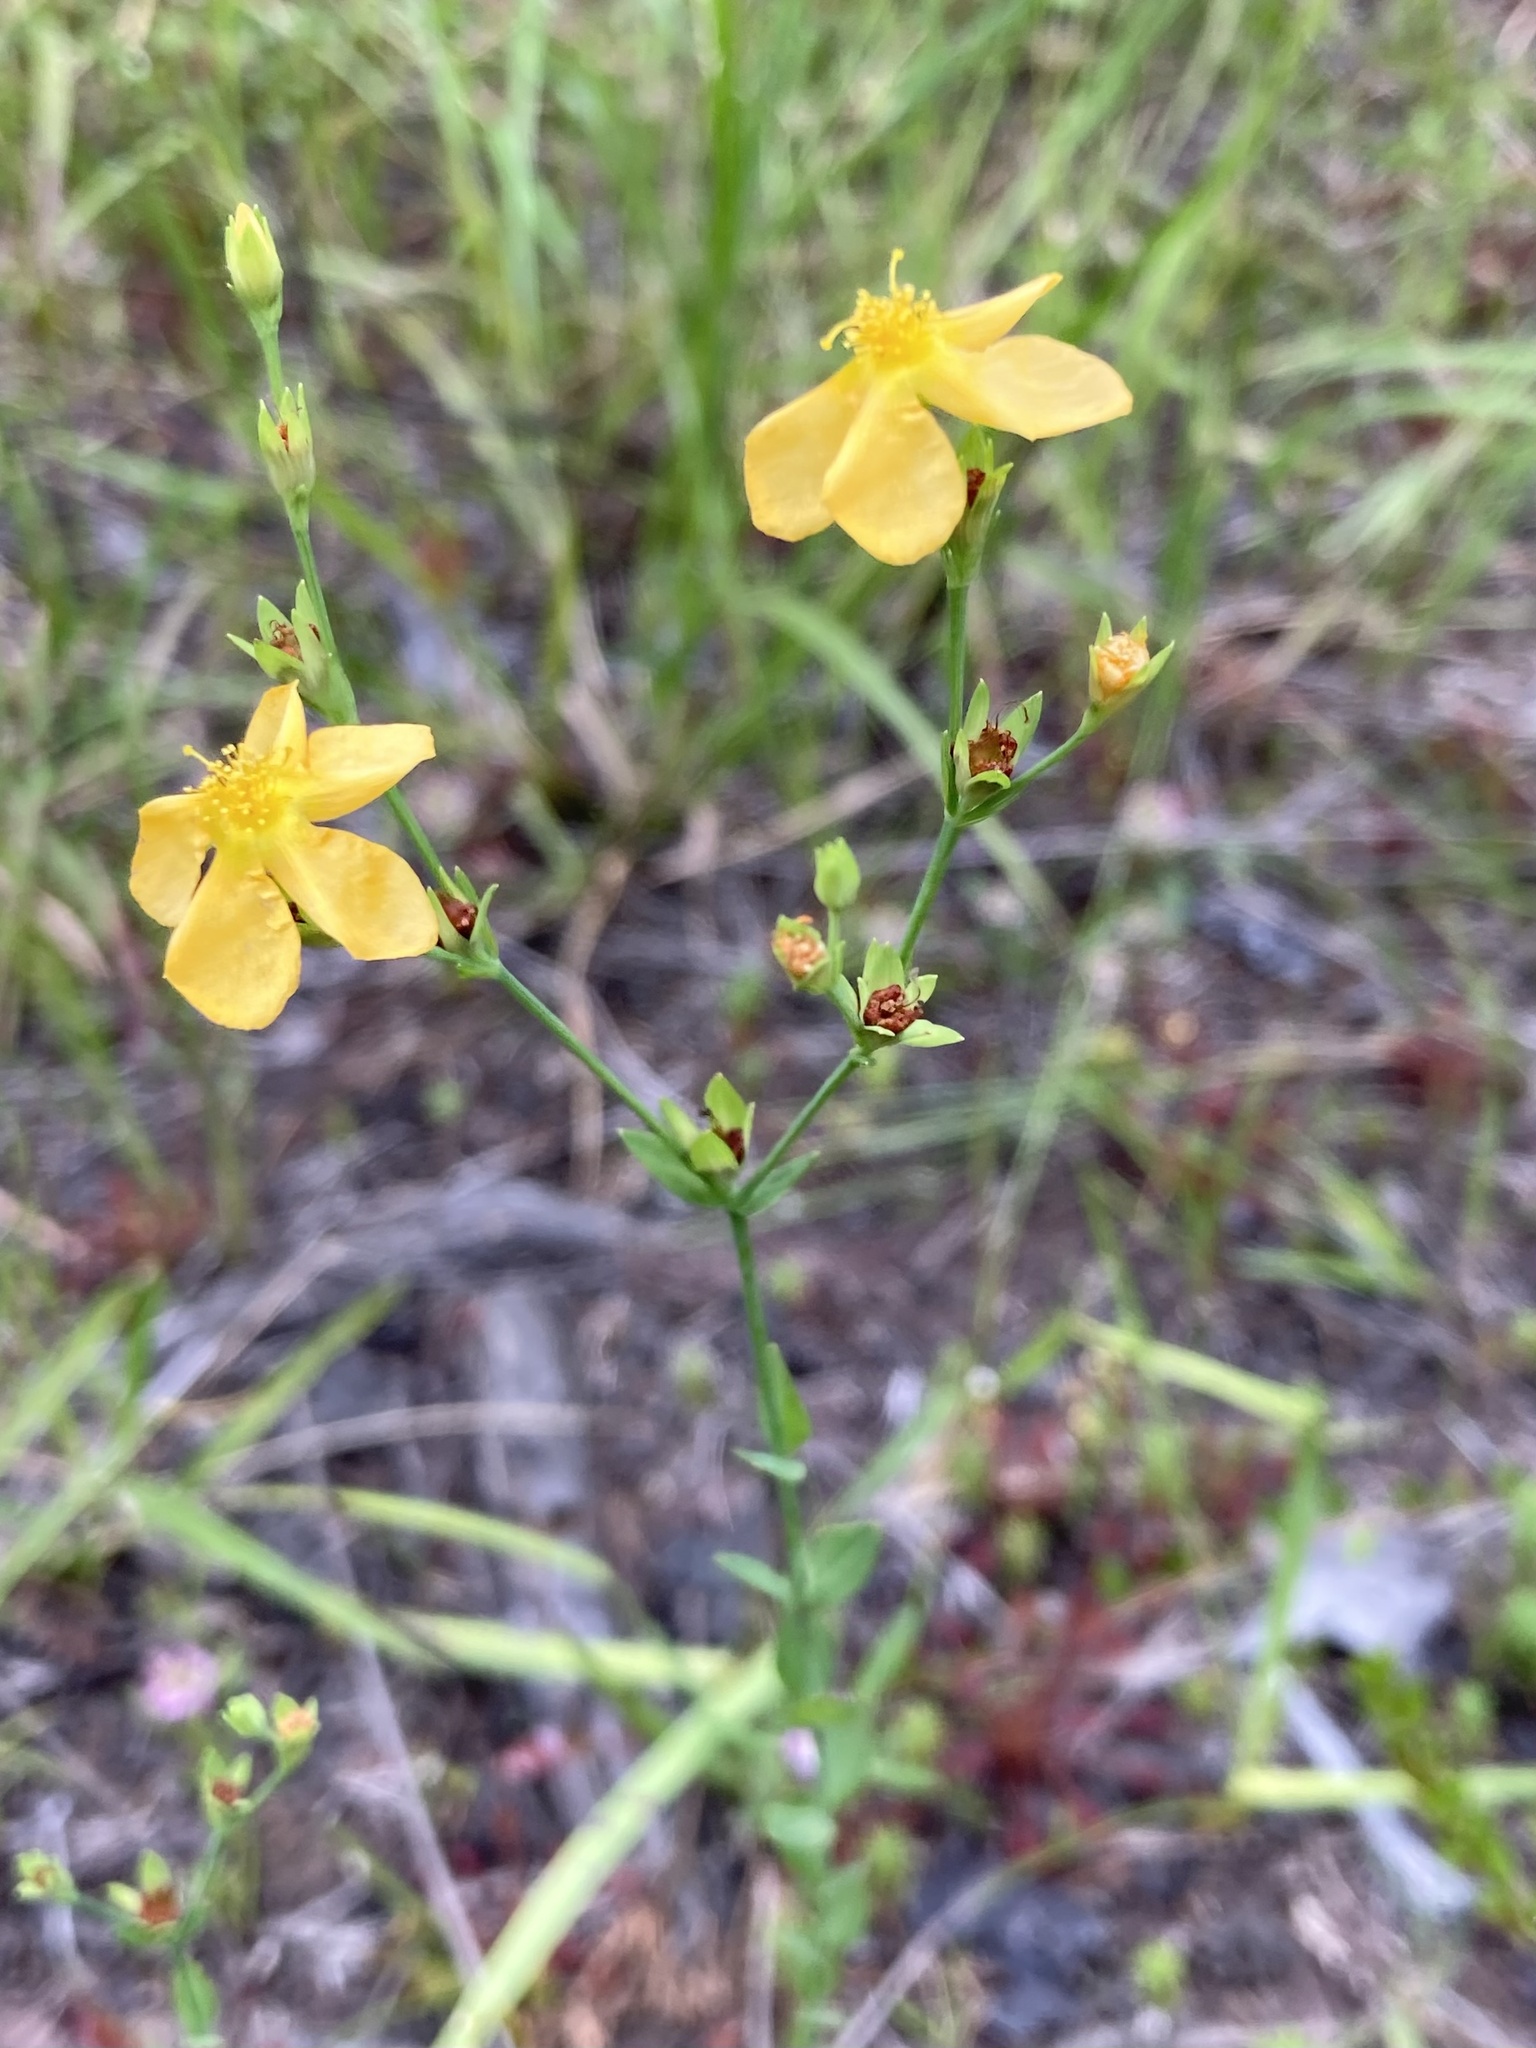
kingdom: Plantae
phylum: Tracheophyta
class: Magnoliopsida
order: Malpighiales
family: Hypericaceae
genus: Hypericum
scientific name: Hypericum denticulatum
